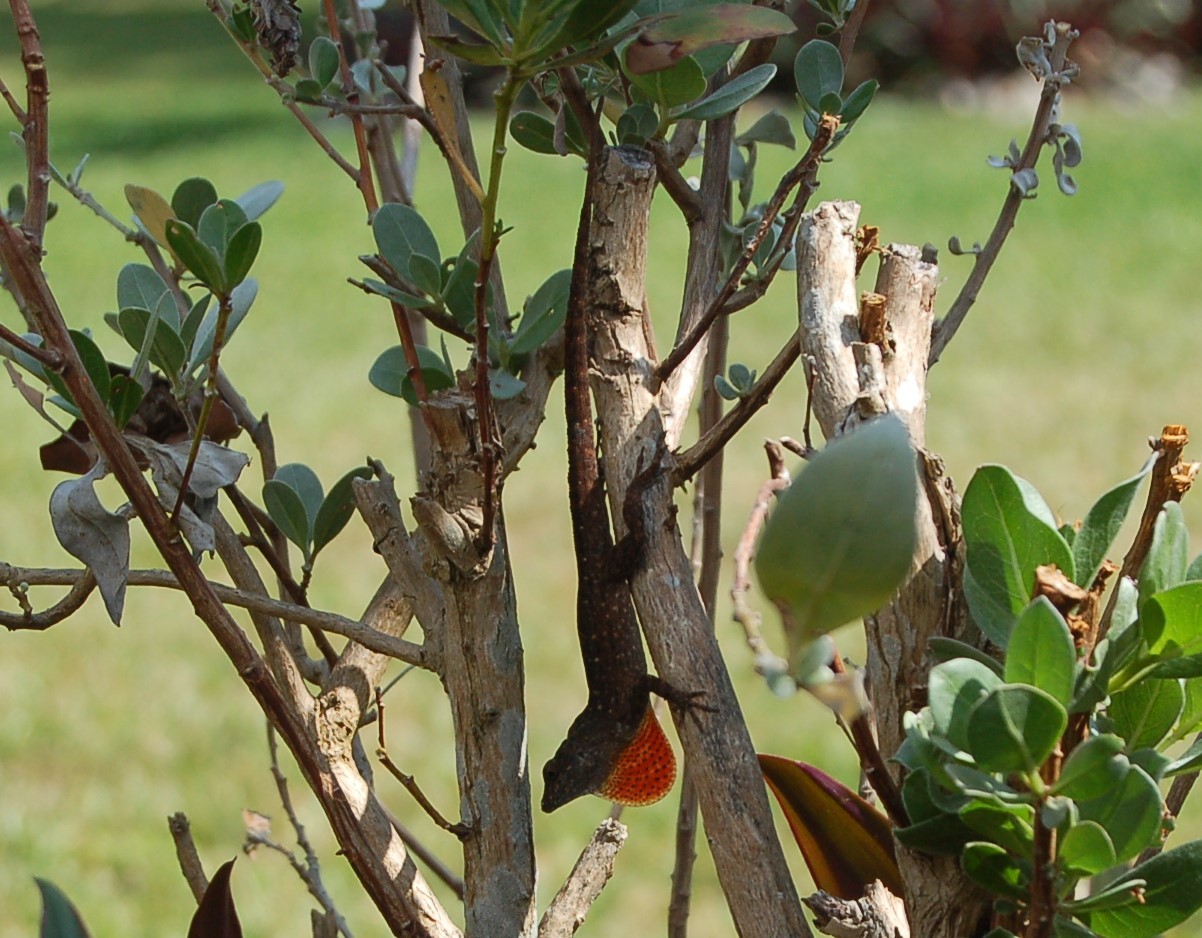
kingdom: Animalia
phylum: Chordata
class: Squamata
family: Dactyloidae
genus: Anolis
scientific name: Anolis sagrei
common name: Brown anole
